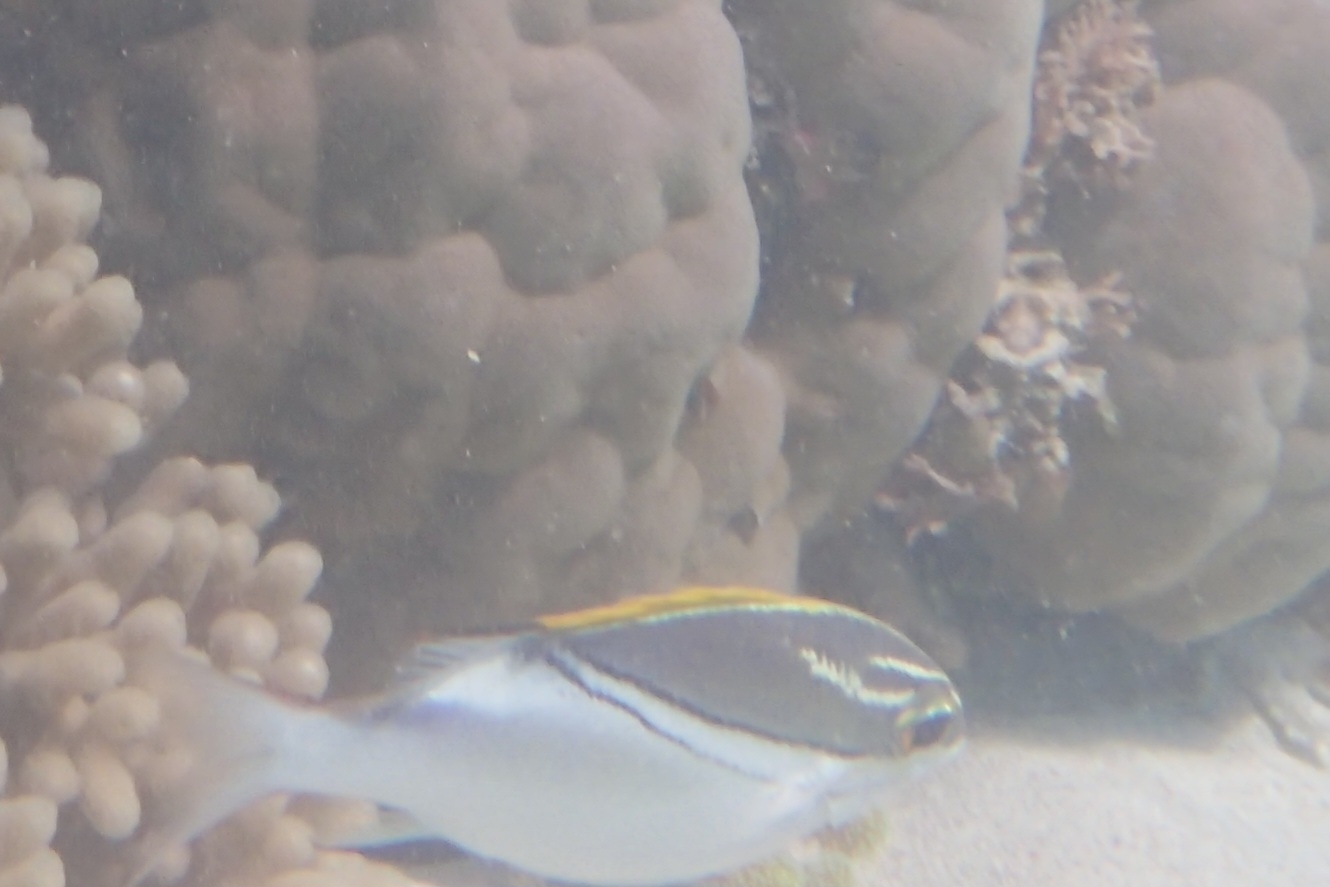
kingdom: Animalia
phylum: Chordata
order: Perciformes
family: Nemipteridae
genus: Scolopsis
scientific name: Scolopsis bilineata
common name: Two-lined monocle bream
